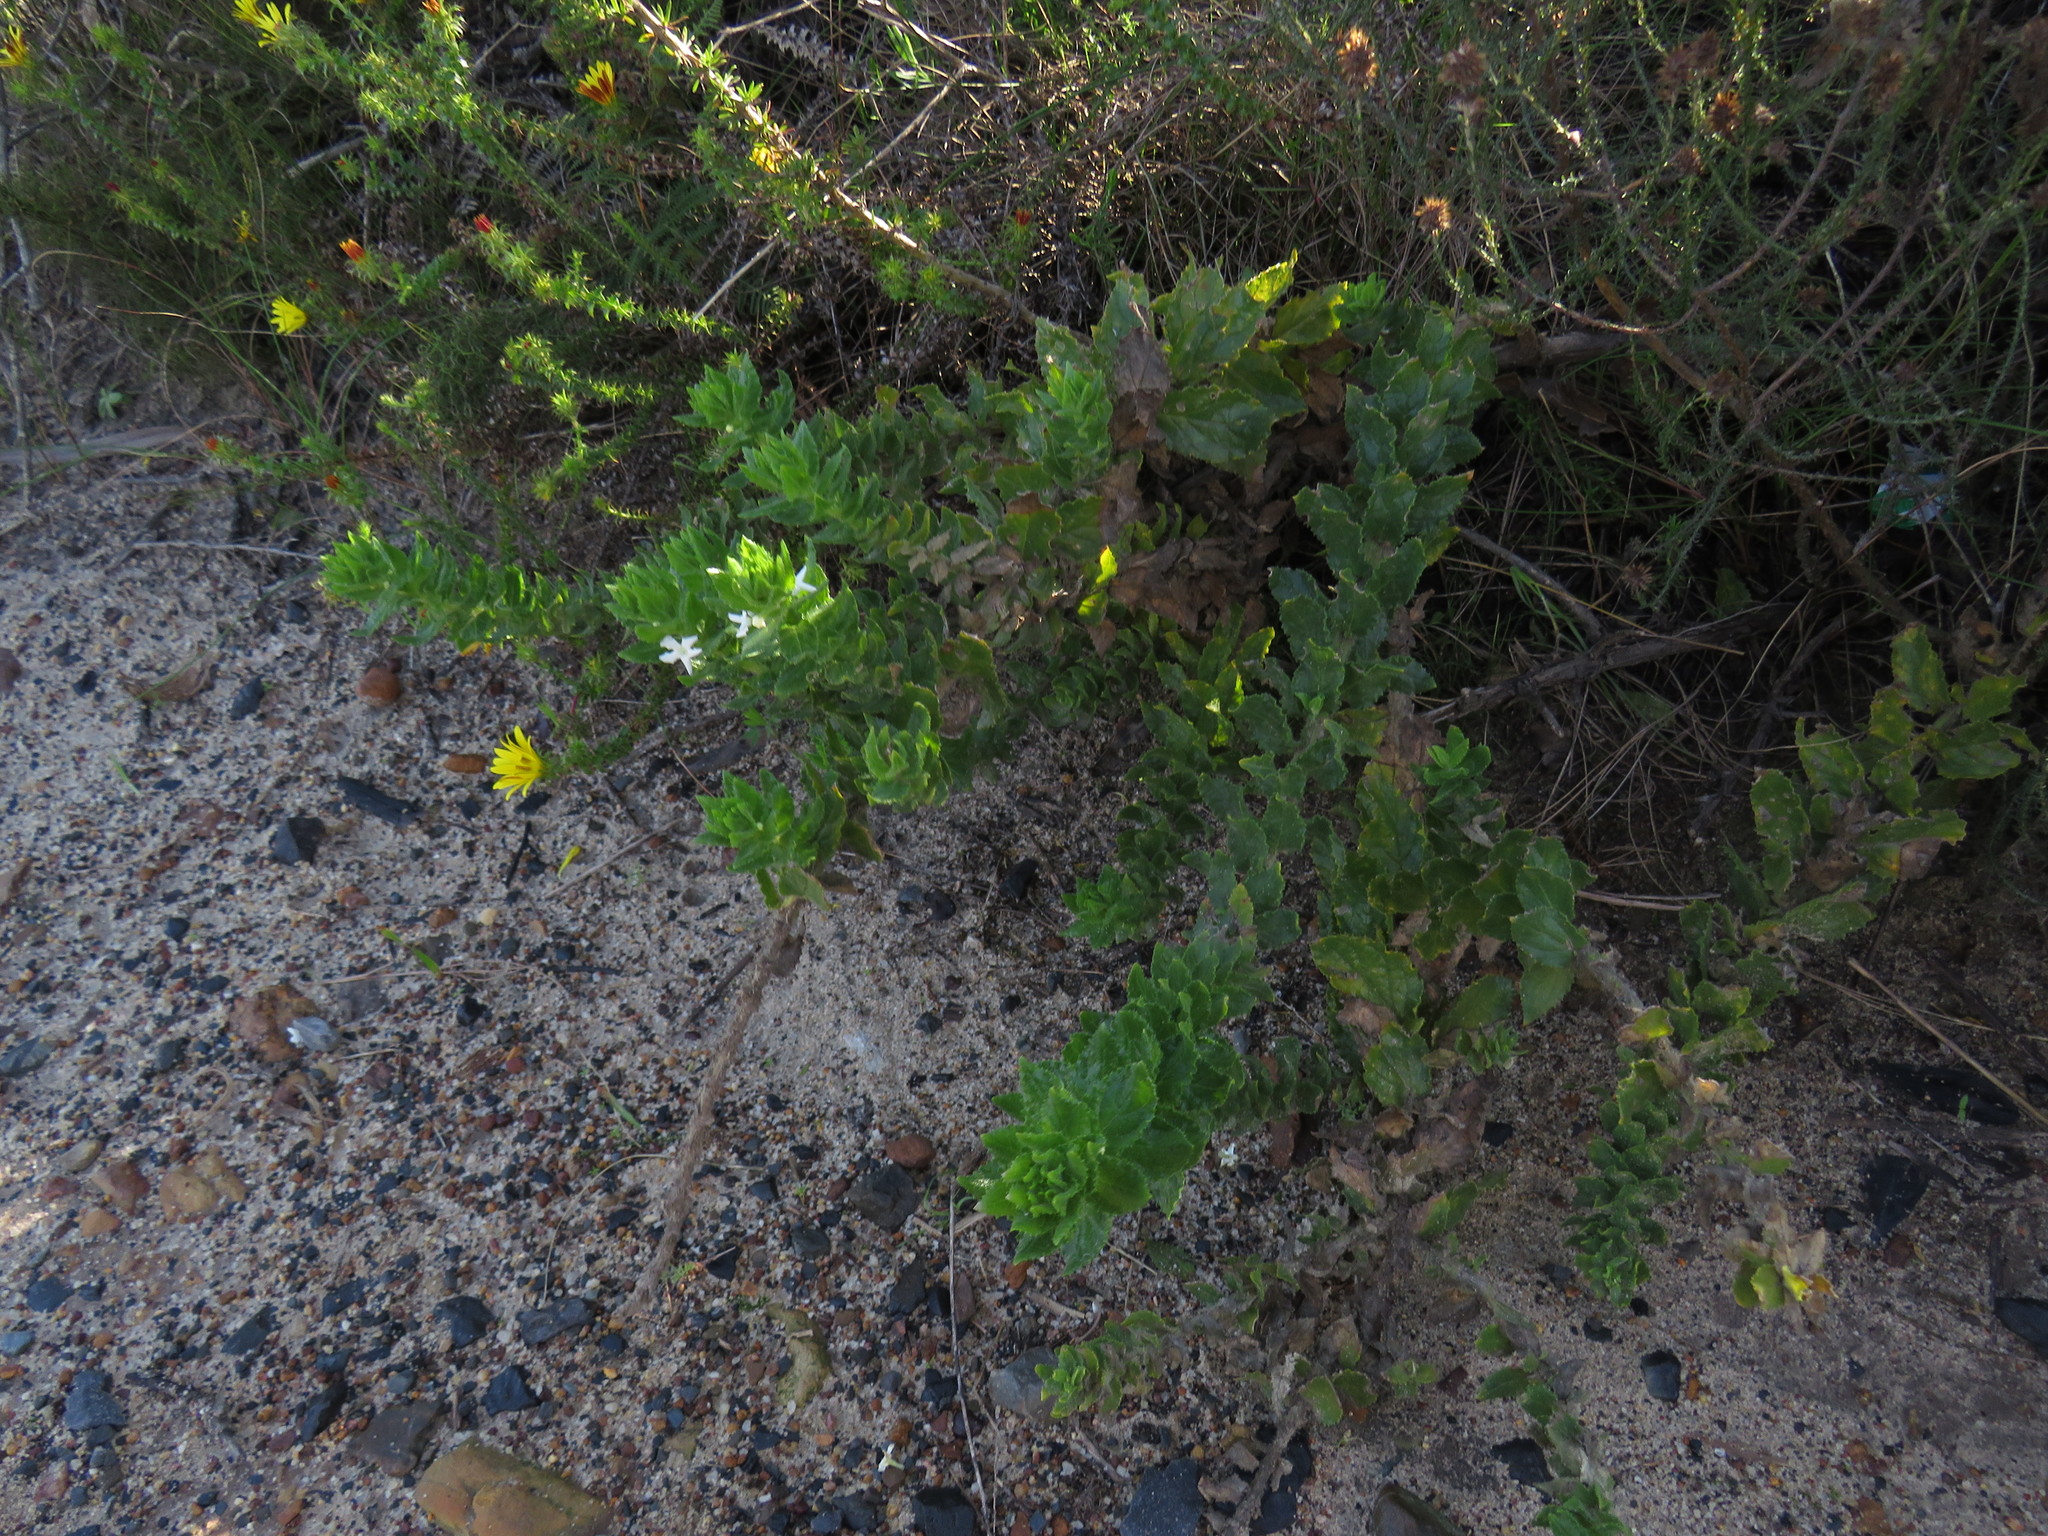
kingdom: Plantae
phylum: Tracheophyta
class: Magnoliopsida
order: Lamiales
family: Scrophulariaceae
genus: Oftia
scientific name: Oftia africana
